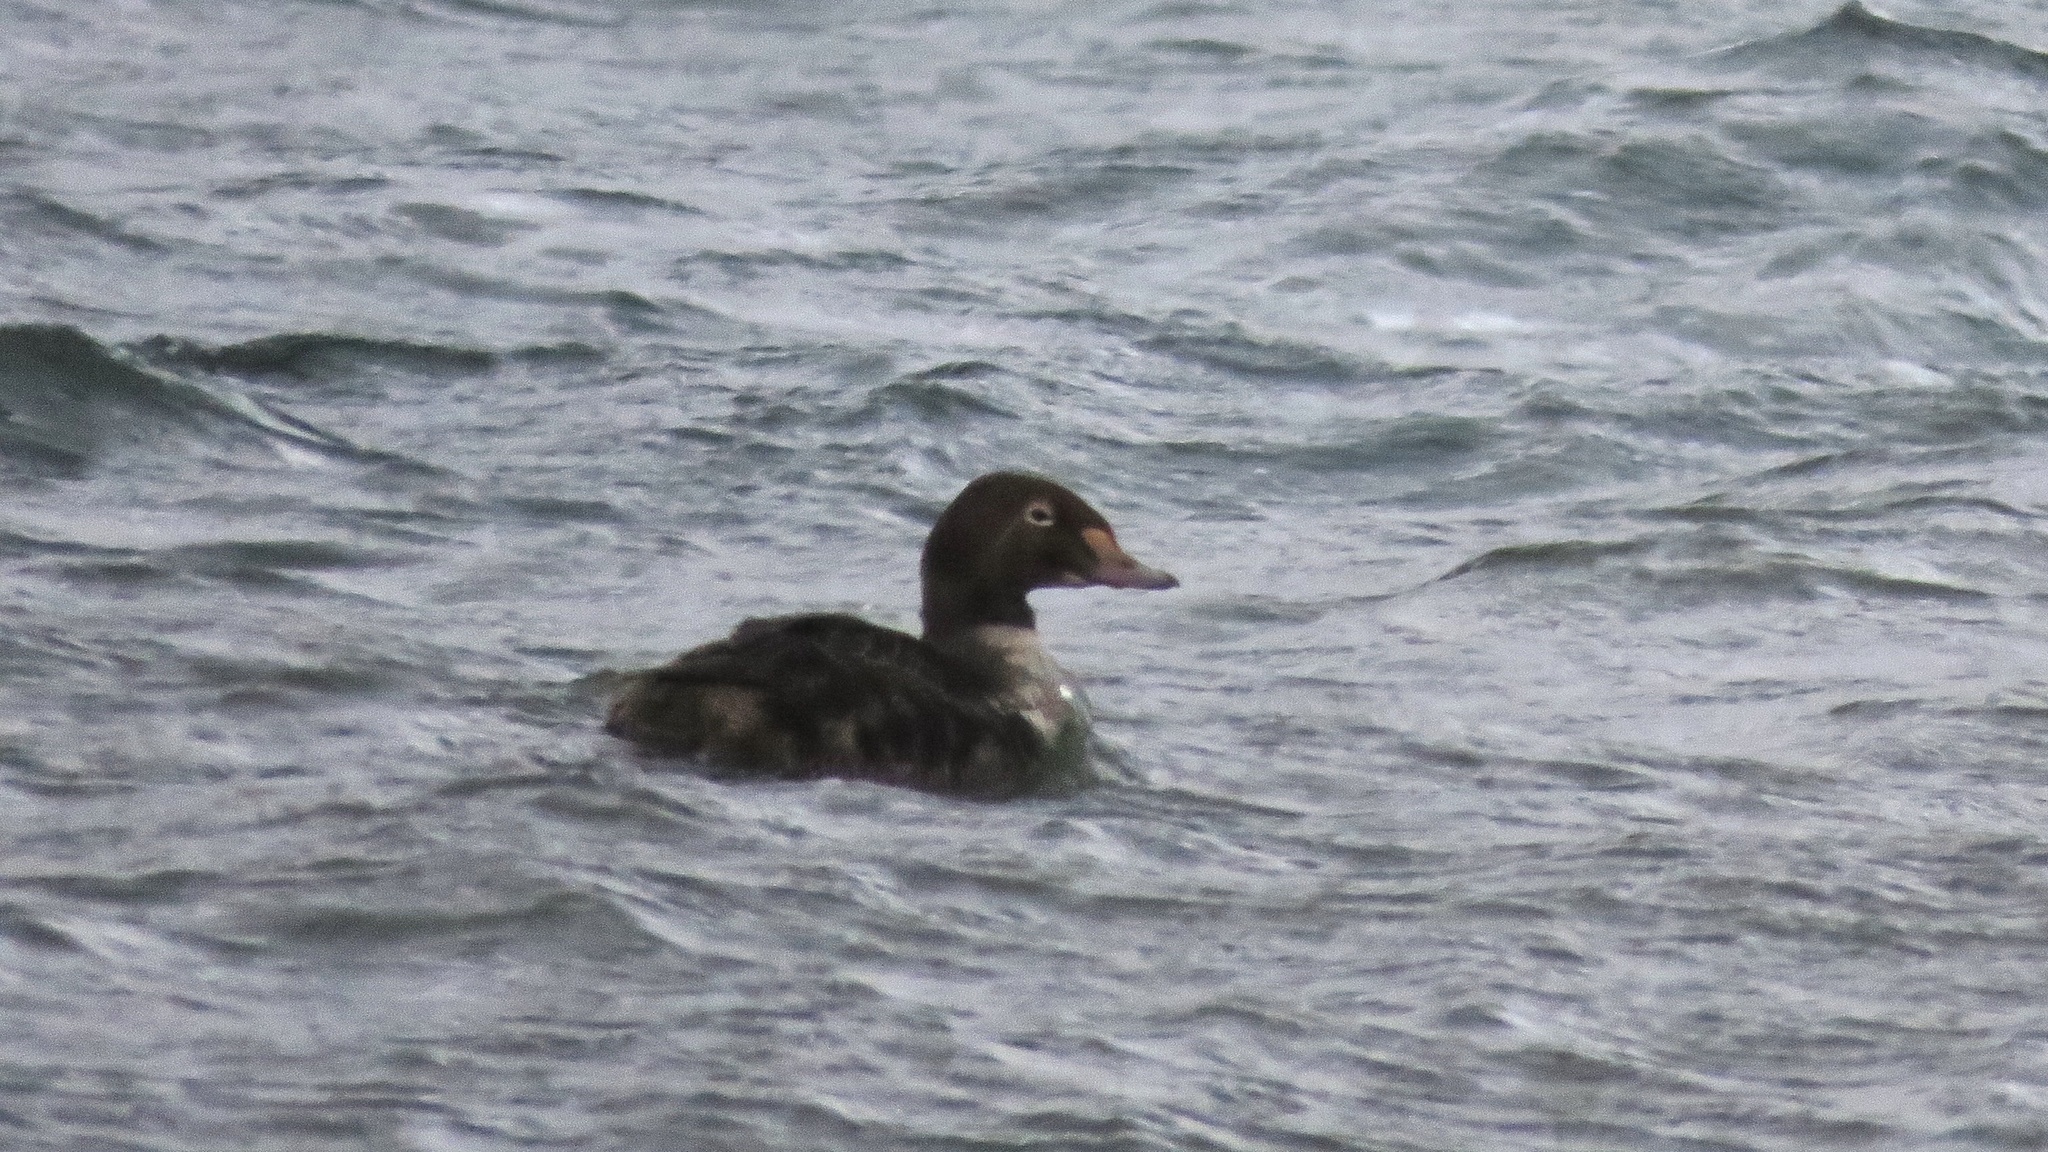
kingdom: Animalia
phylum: Chordata
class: Aves
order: Anseriformes
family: Anatidae
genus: Somateria
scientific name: Somateria spectabilis
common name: King eider
